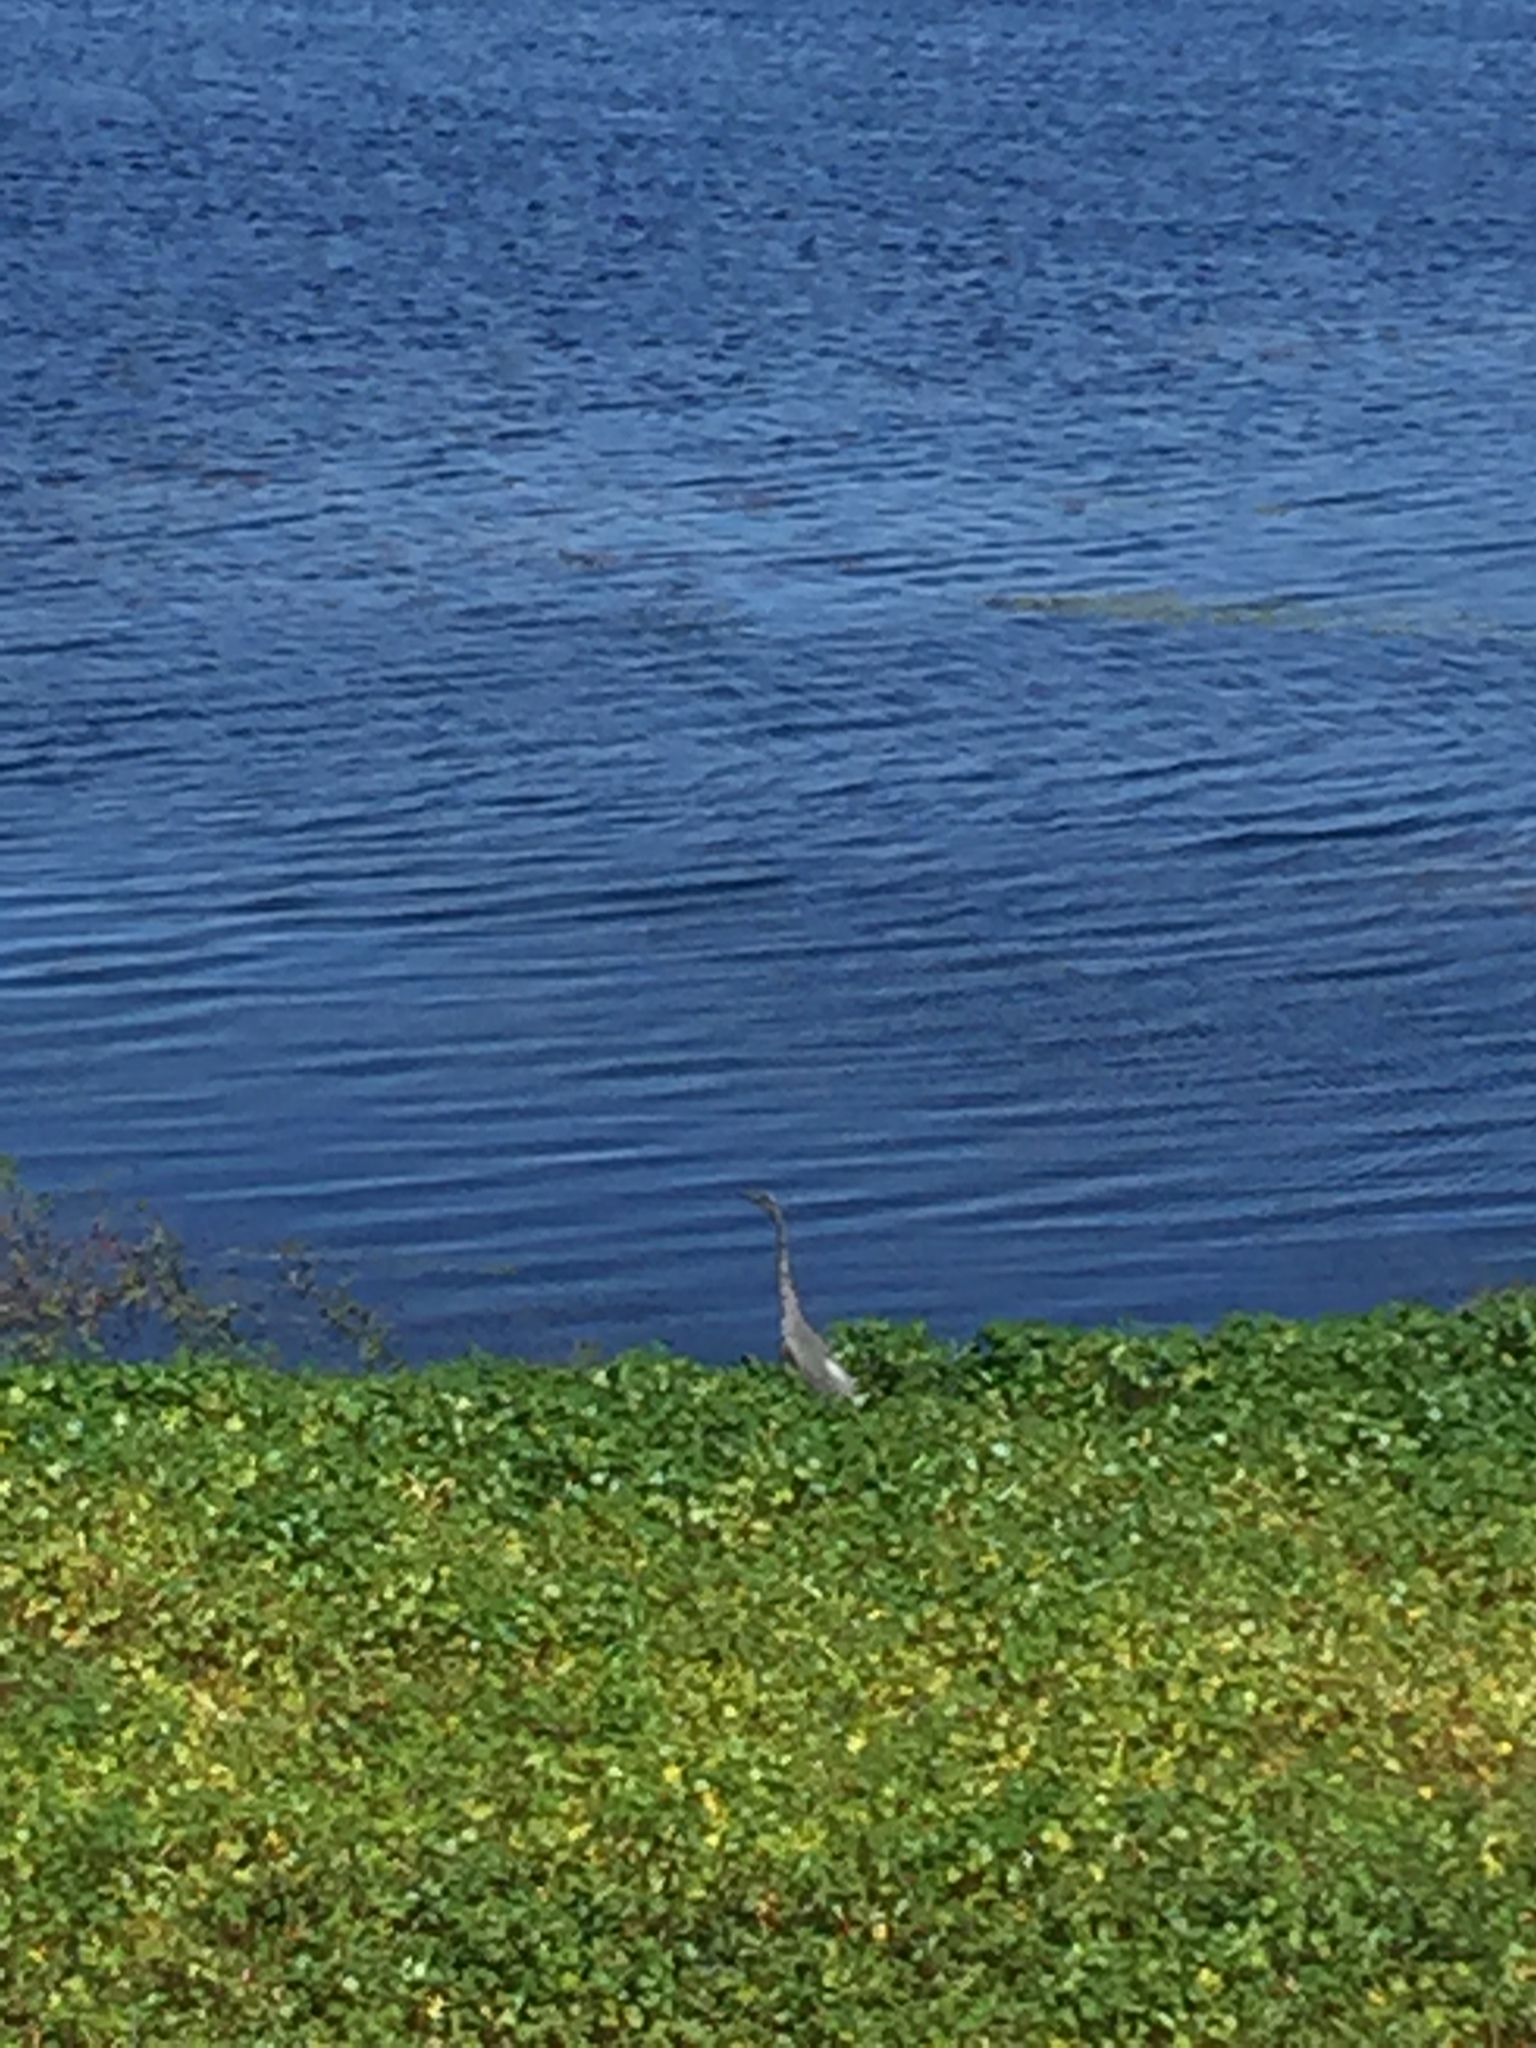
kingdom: Animalia
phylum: Chordata
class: Aves
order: Pelecaniformes
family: Ardeidae
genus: Ardea
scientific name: Ardea herodias
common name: Great blue heron
